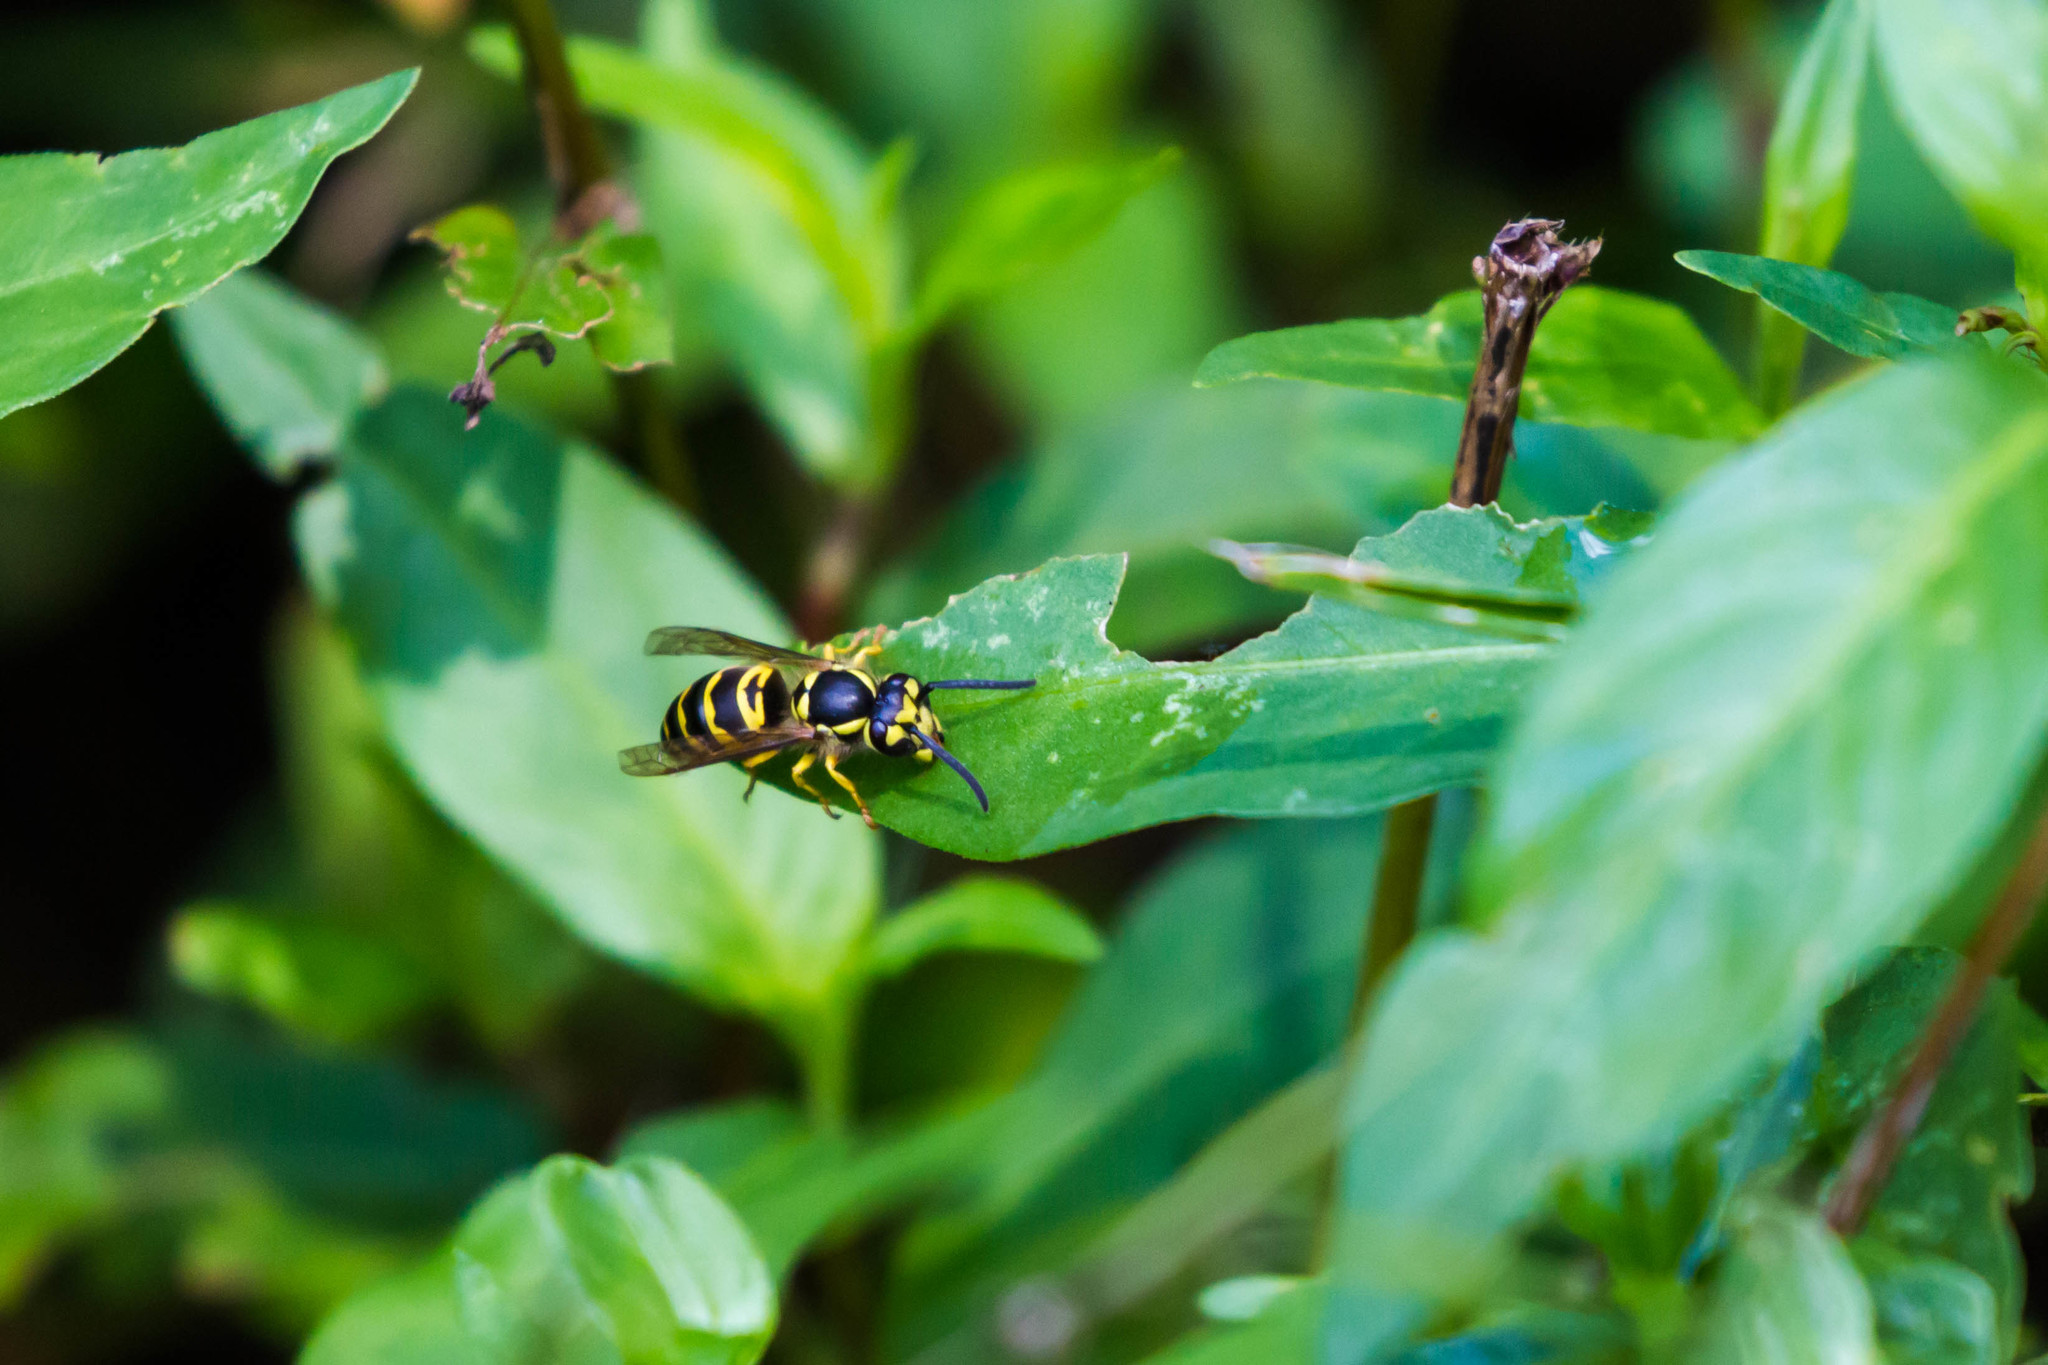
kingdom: Animalia
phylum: Arthropoda
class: Insecta
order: Hymenoptera
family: Vespidae
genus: Vespula
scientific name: Vespula maculifrons
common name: Eastern yellowjacket
